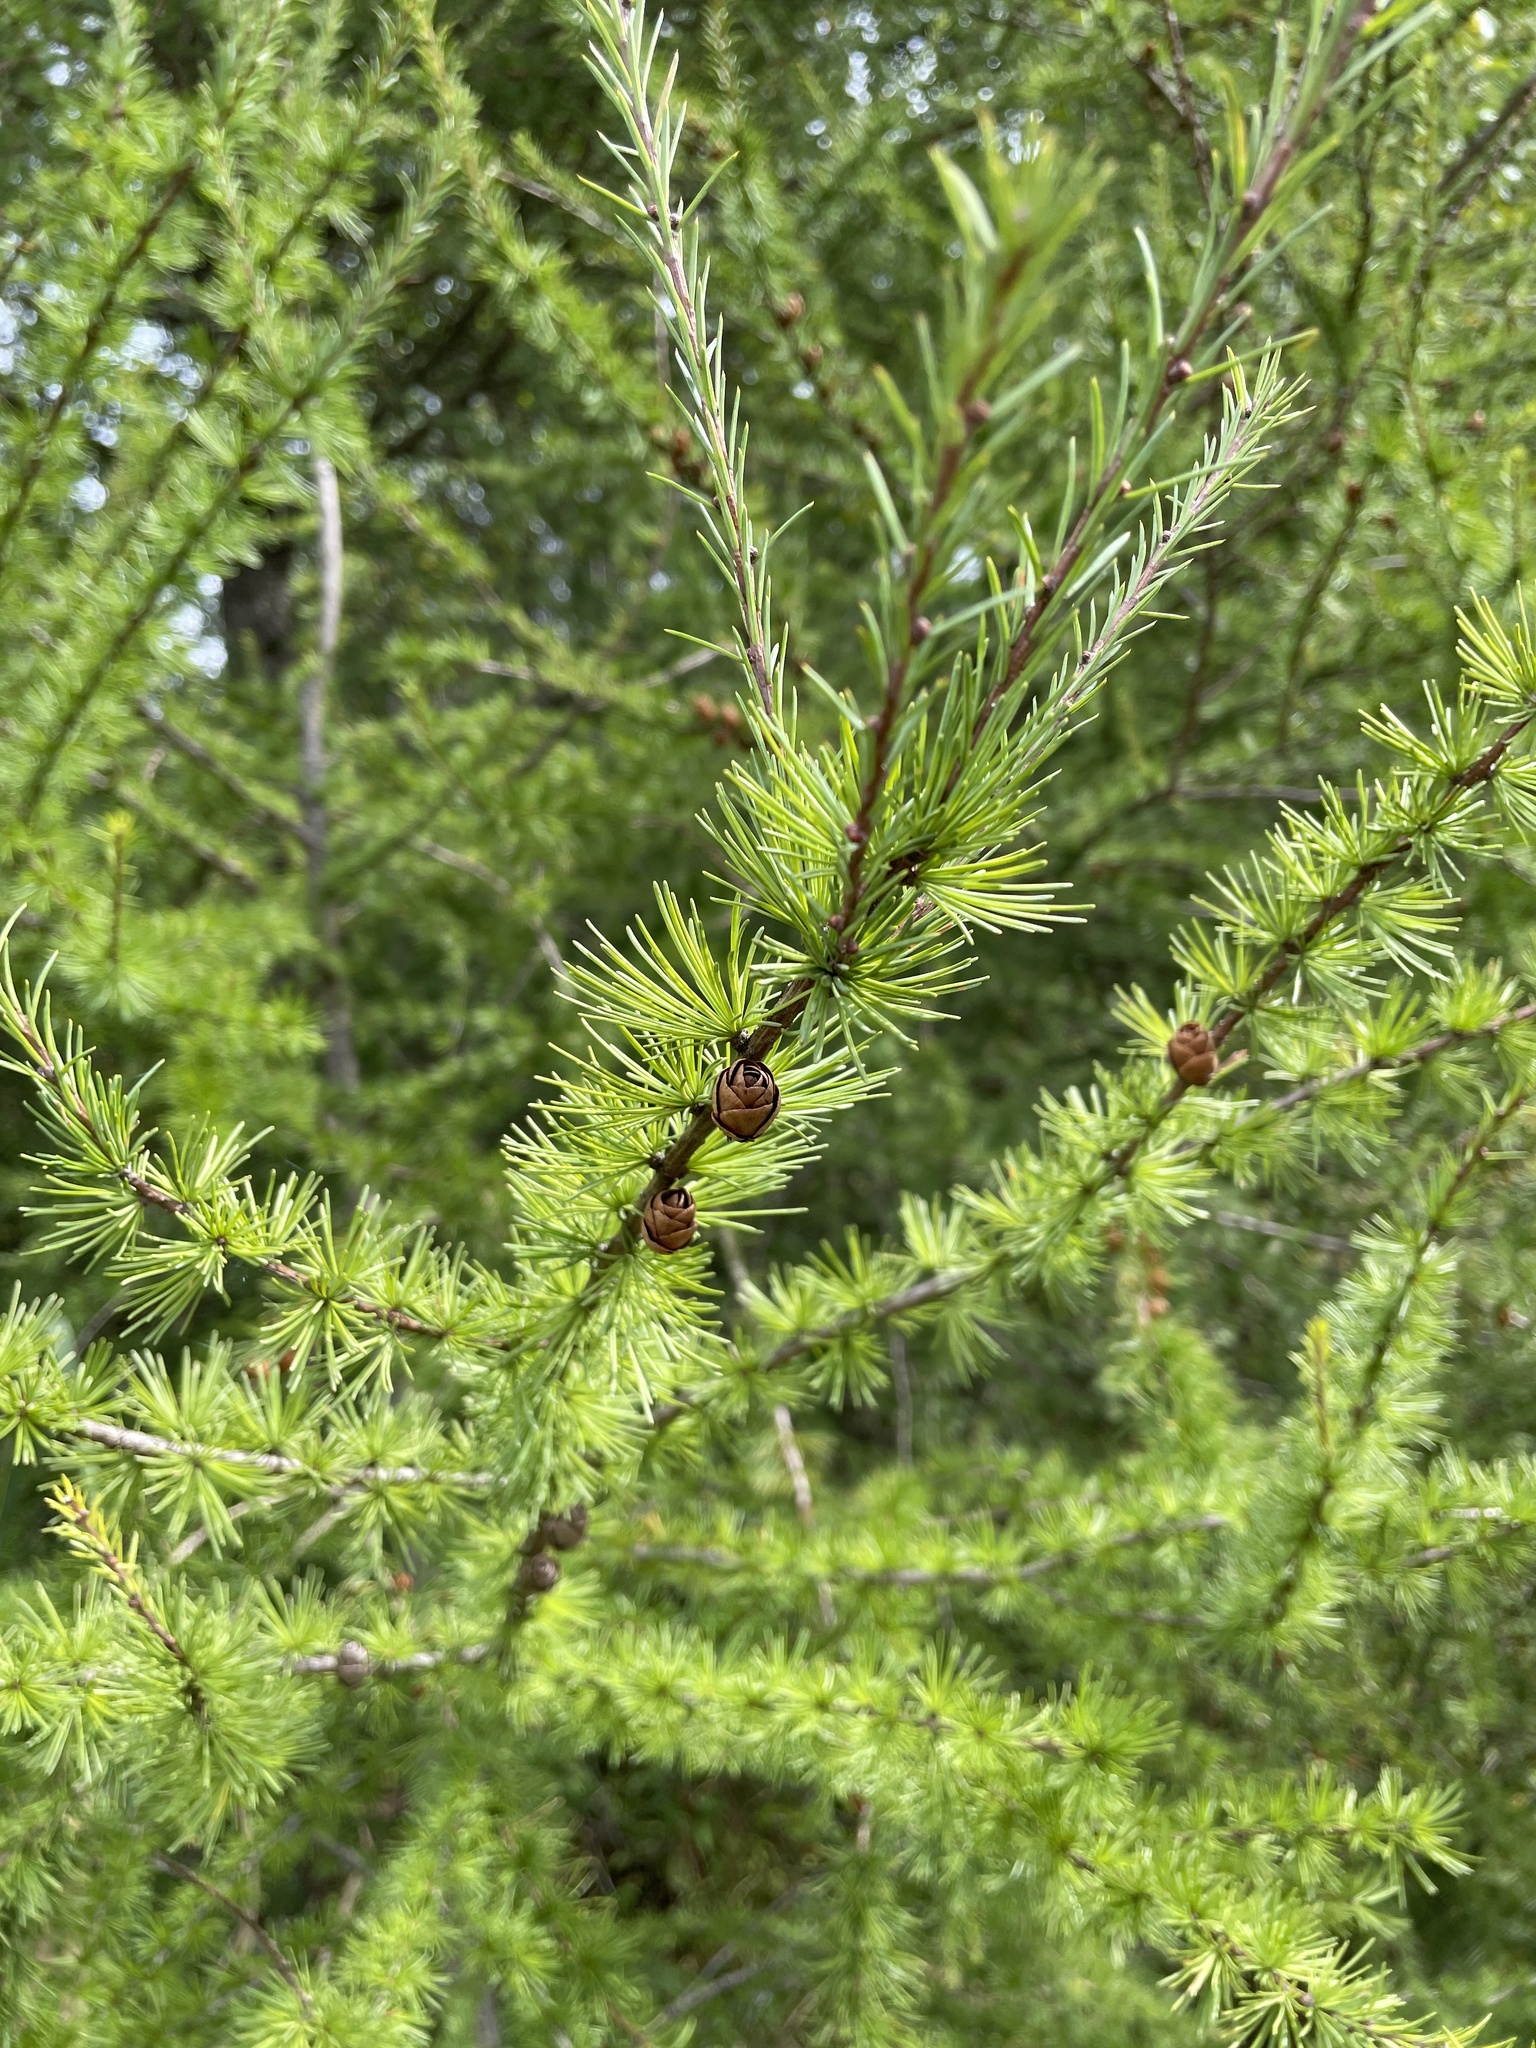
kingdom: Plantae
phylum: Tracheophyta
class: Pinopsida
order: Pinales
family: Pinaceae
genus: Larix
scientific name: Larix laricina
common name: American larch
